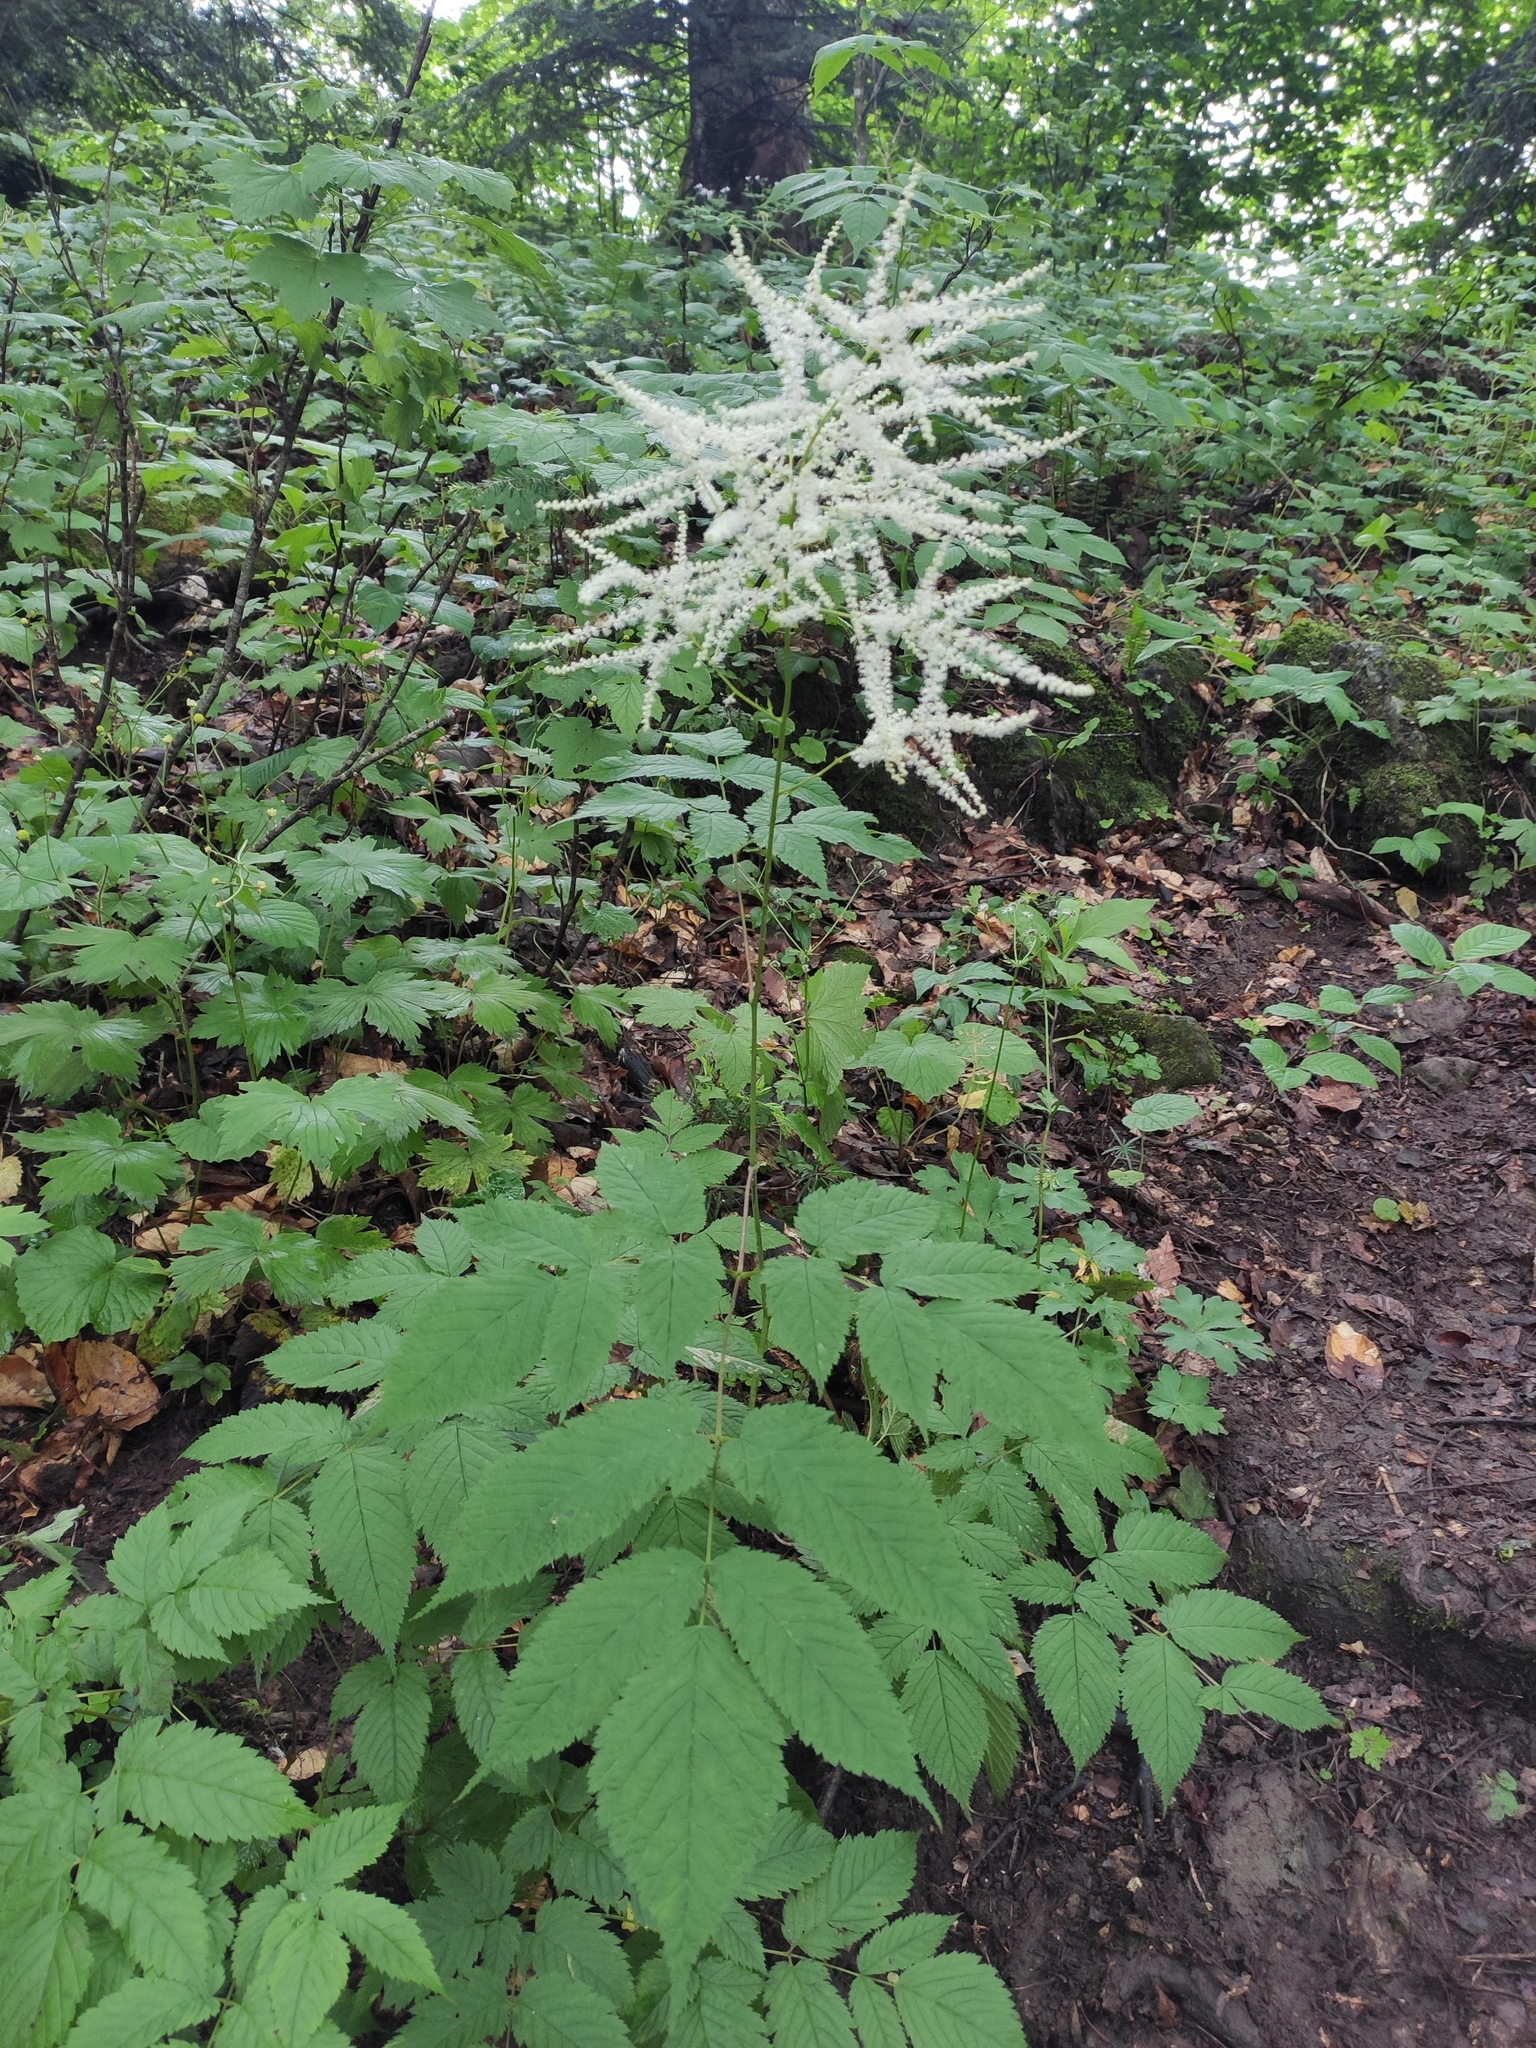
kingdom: Plantae
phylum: Tracheophyta
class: Magnoliopsida
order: Rosales
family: Rosaceae
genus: Aruncus
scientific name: Aruncus dioicus
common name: Buck's-beard
